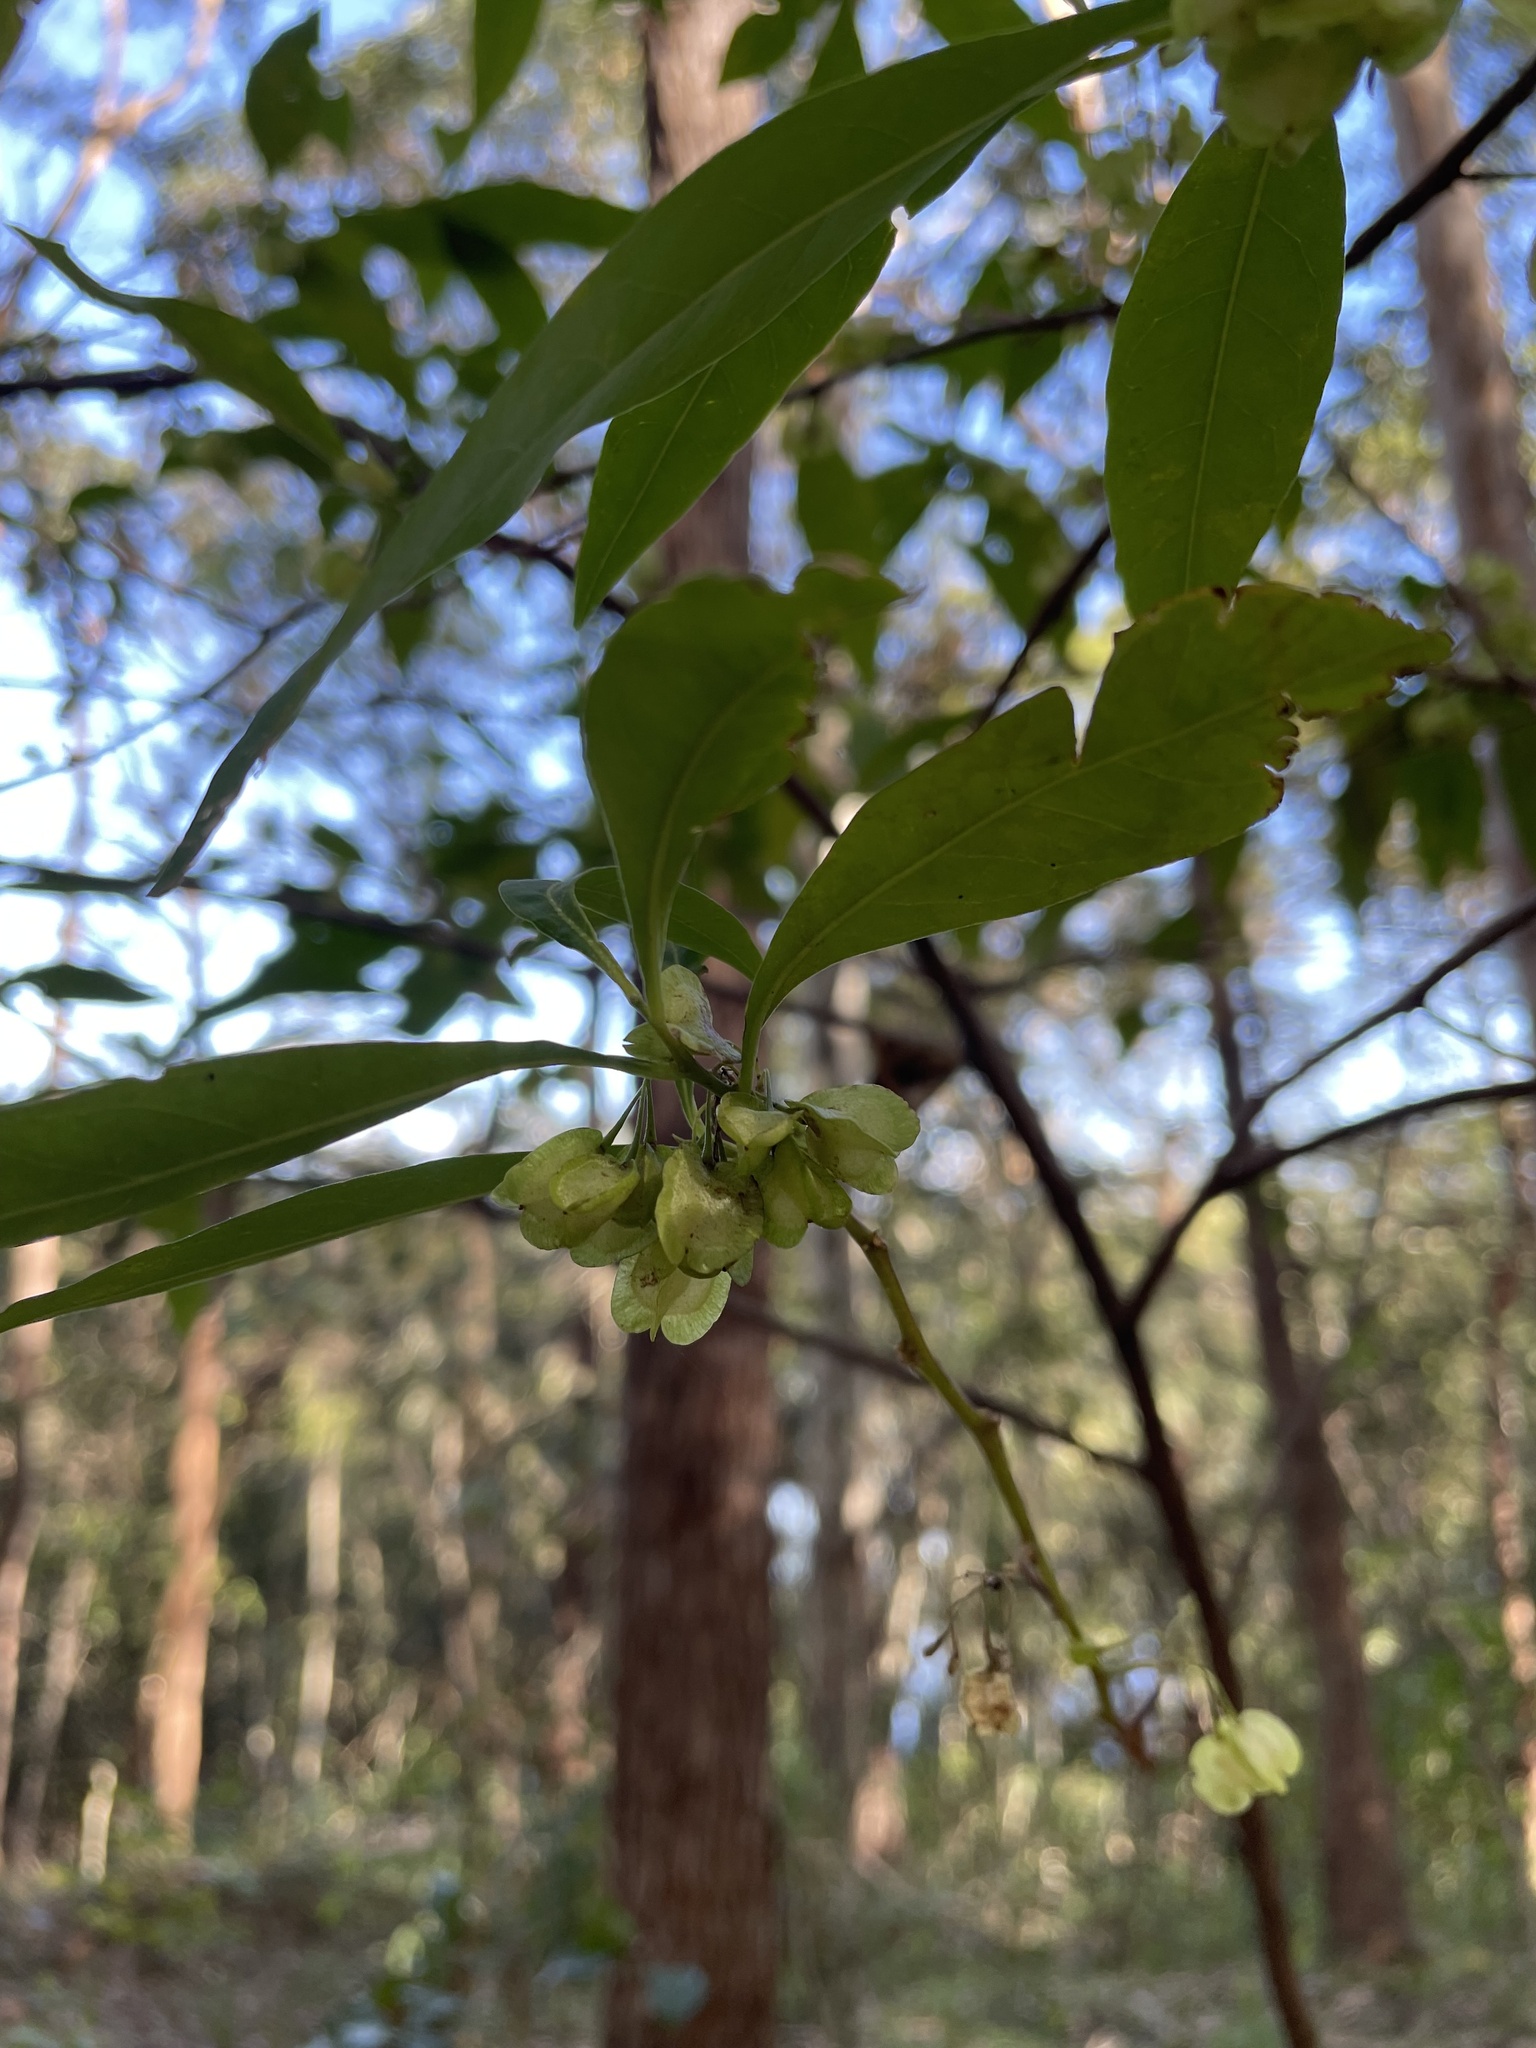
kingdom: Plantae
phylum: Tracheophyta
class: Magnoliopsida
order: Sapindales
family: Sapindaceae
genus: Dodonaea
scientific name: Dodonaea triquetra
